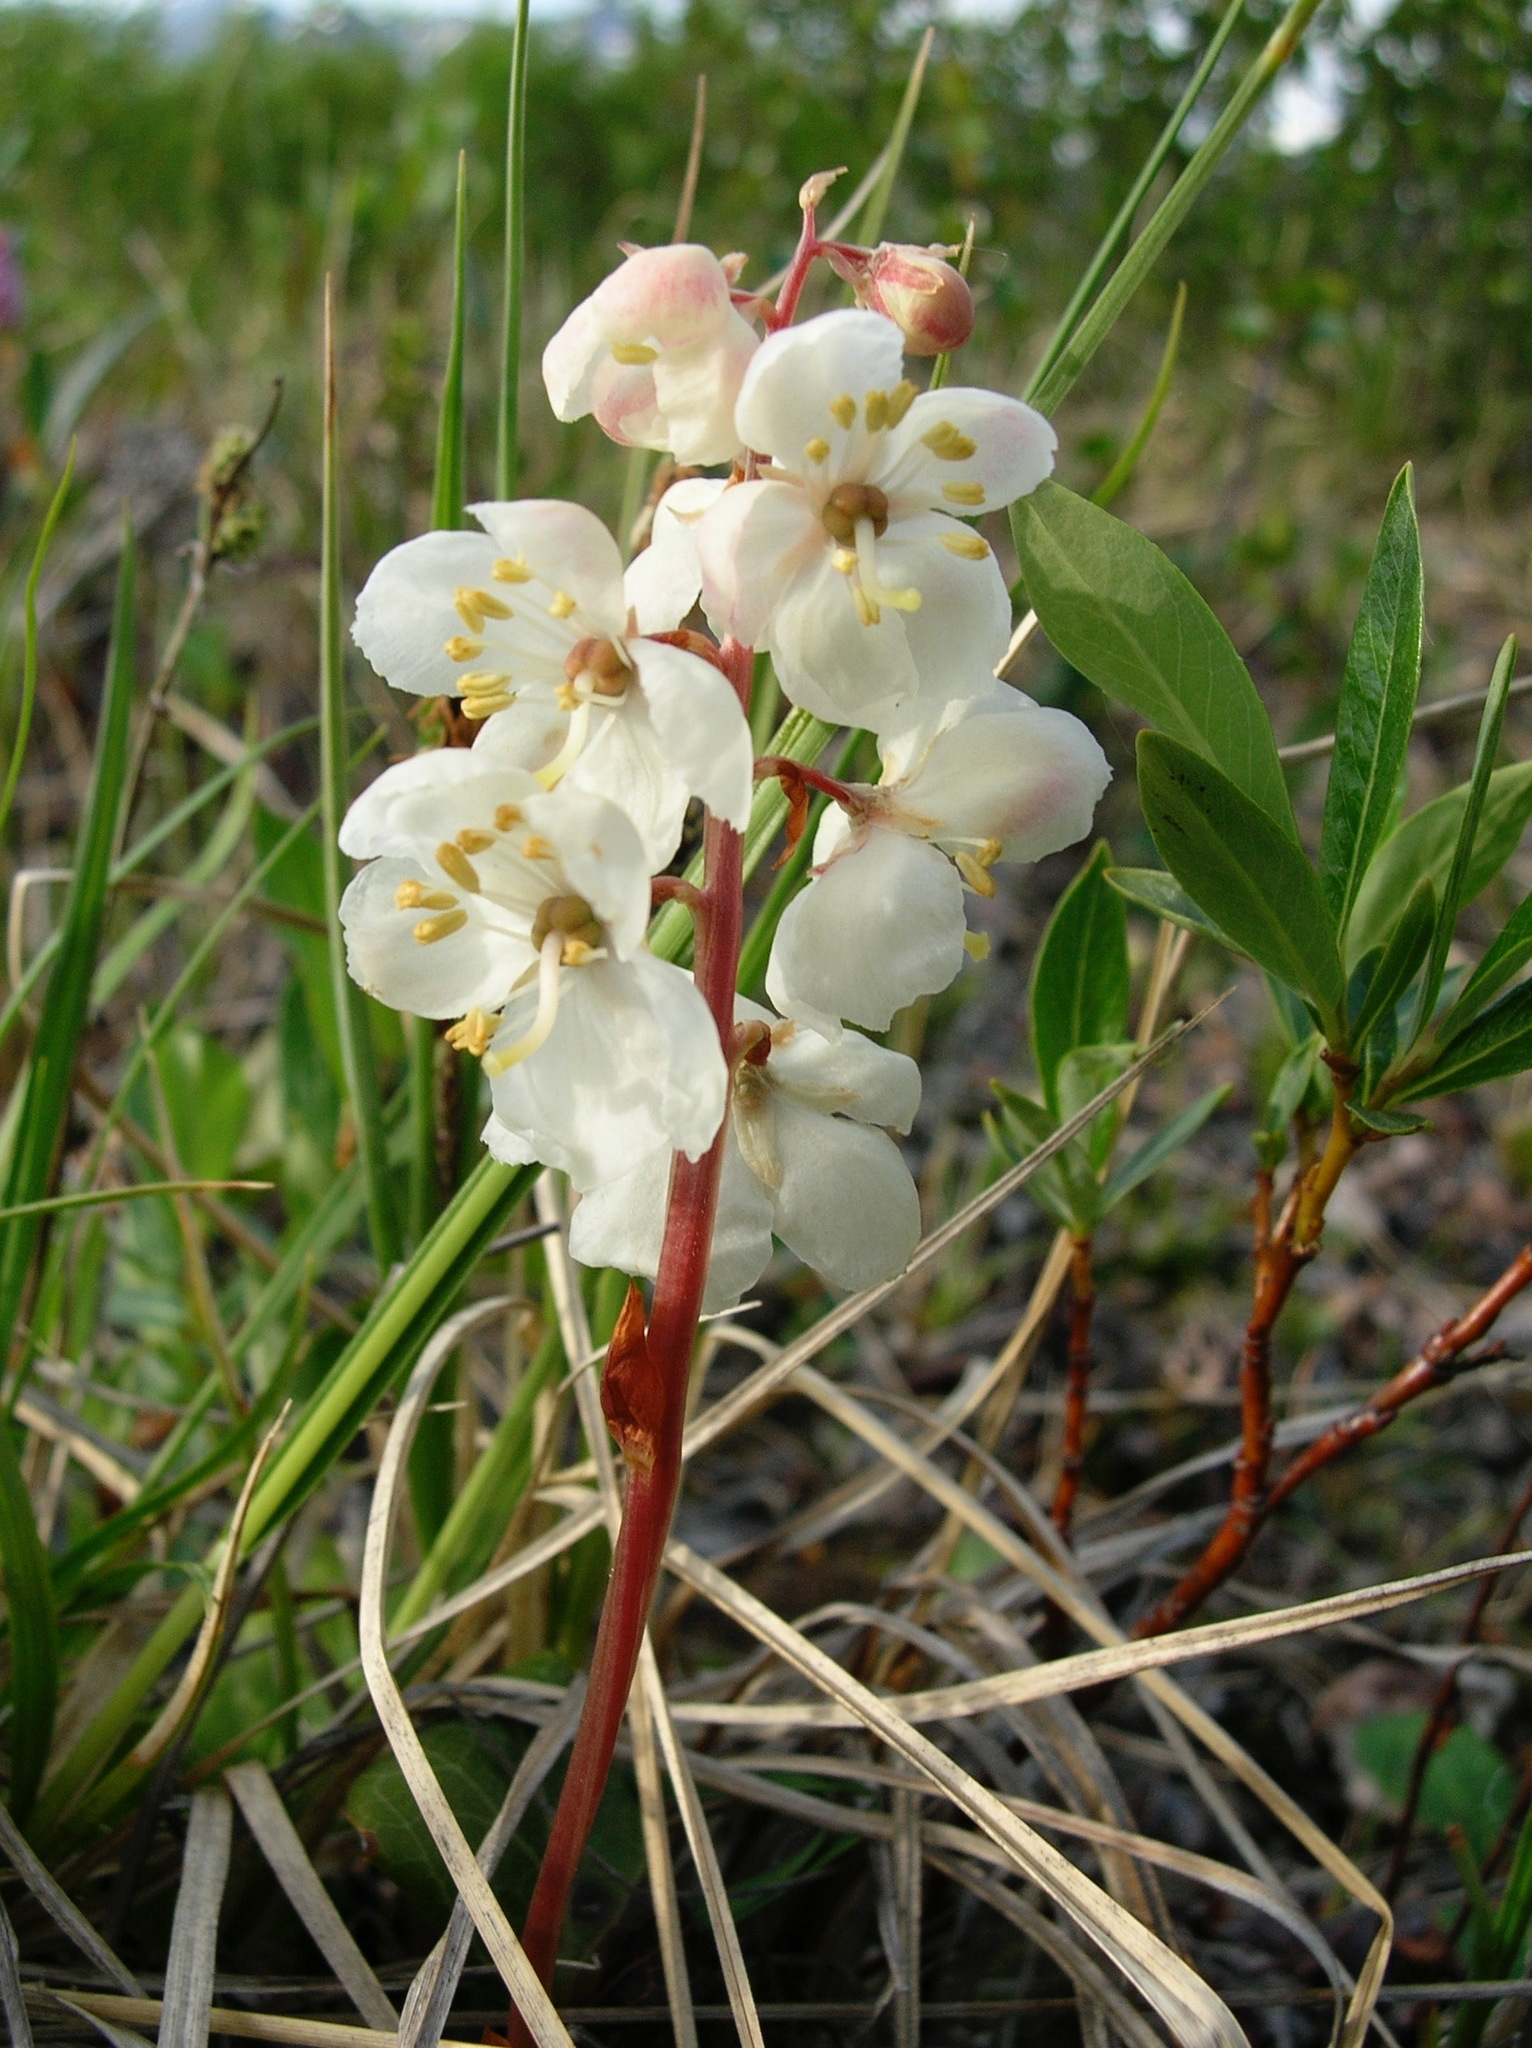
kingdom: Plantae
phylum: Tracheophyta
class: Magnoliopsida
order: Ericales
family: Ericaceae
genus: Pyrola
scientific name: Pyrola grandiflora
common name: Arctic pyrola
